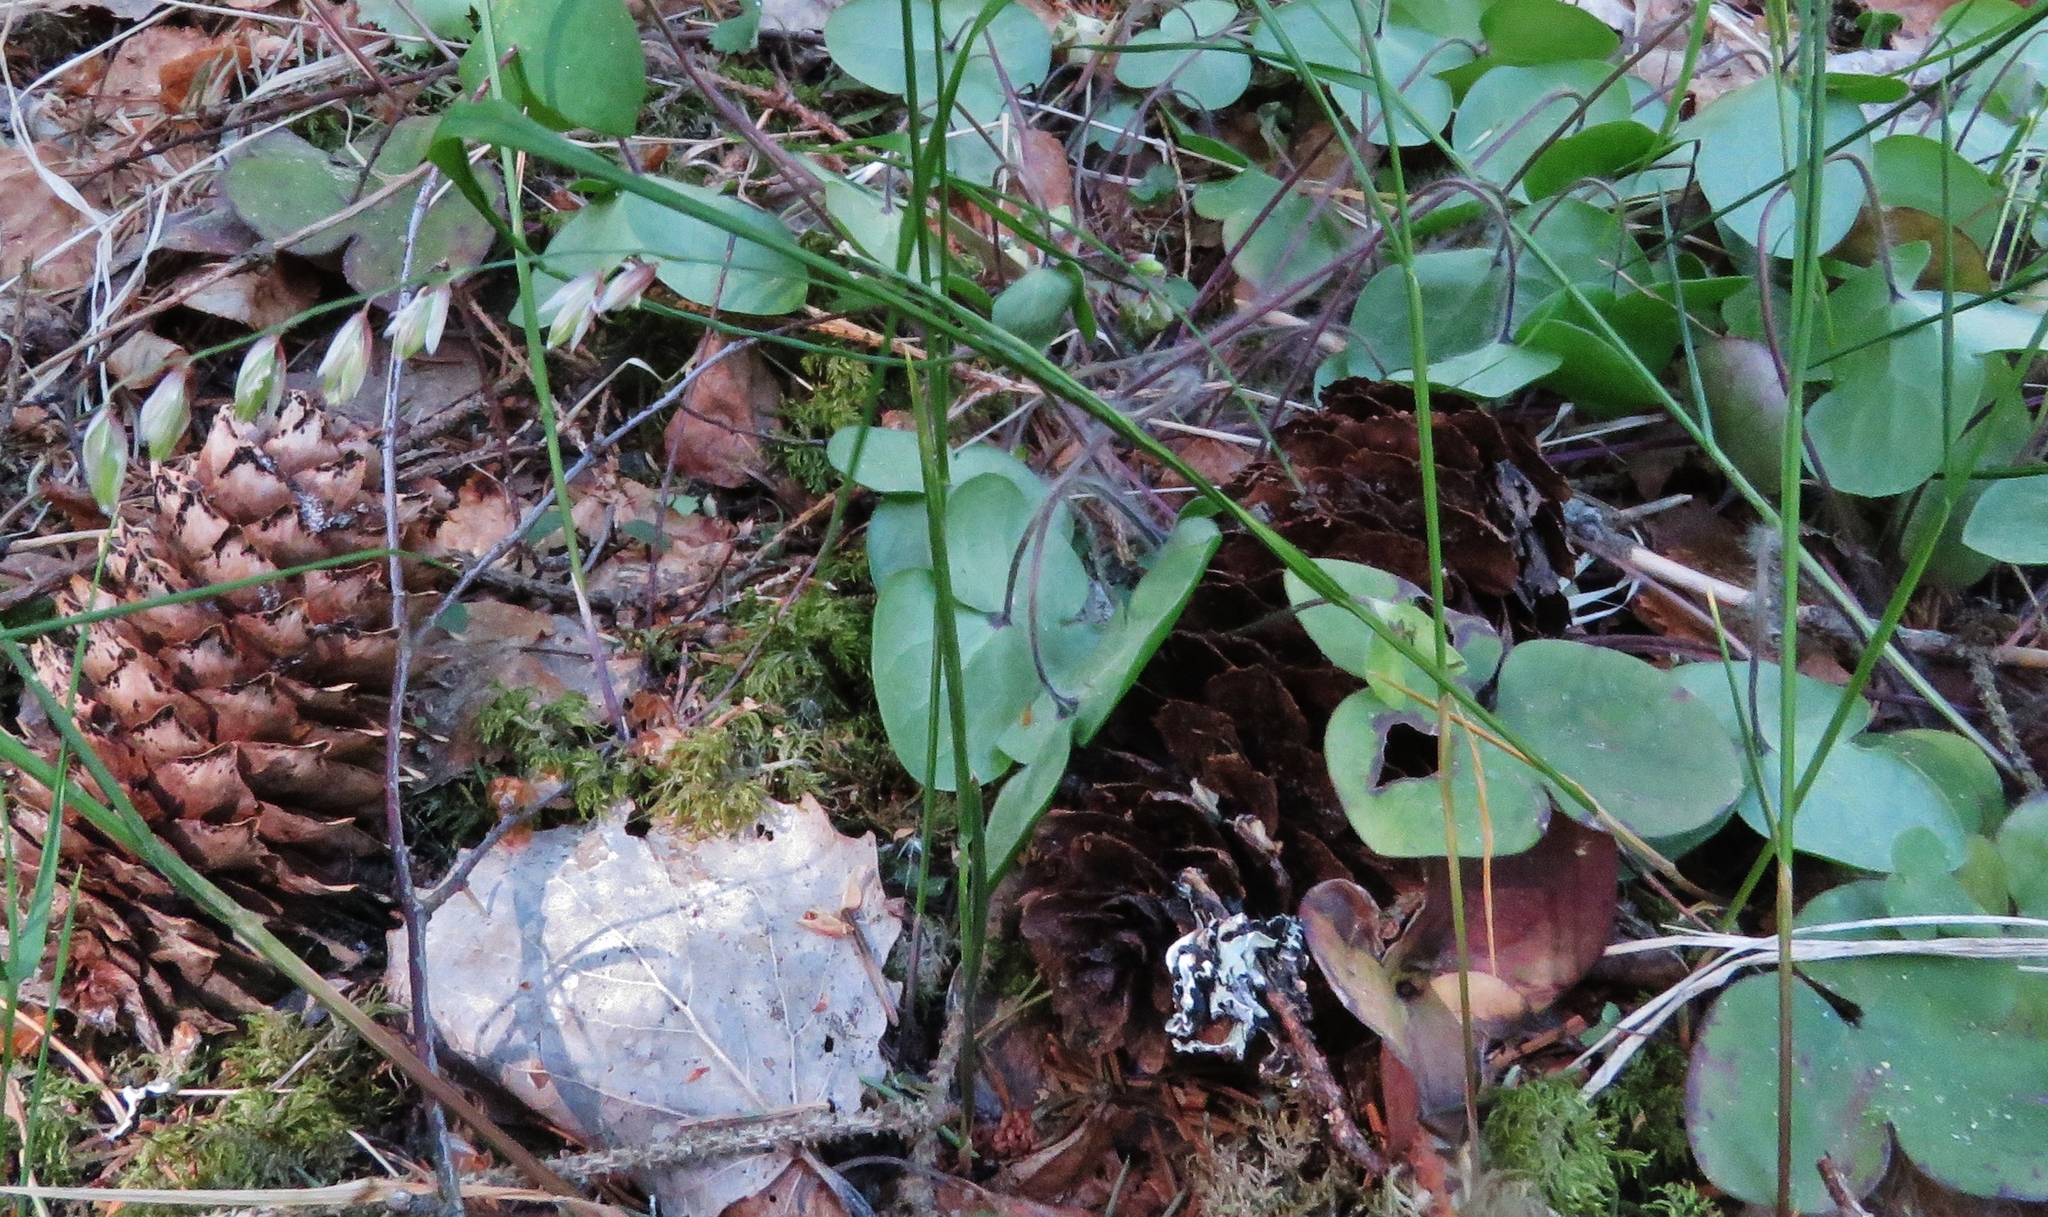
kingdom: Plantae
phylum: Tracheophyta
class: Liliopsida
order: Poales
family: Poaceae
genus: Melica
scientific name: Melica nutans
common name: Mountain melick
